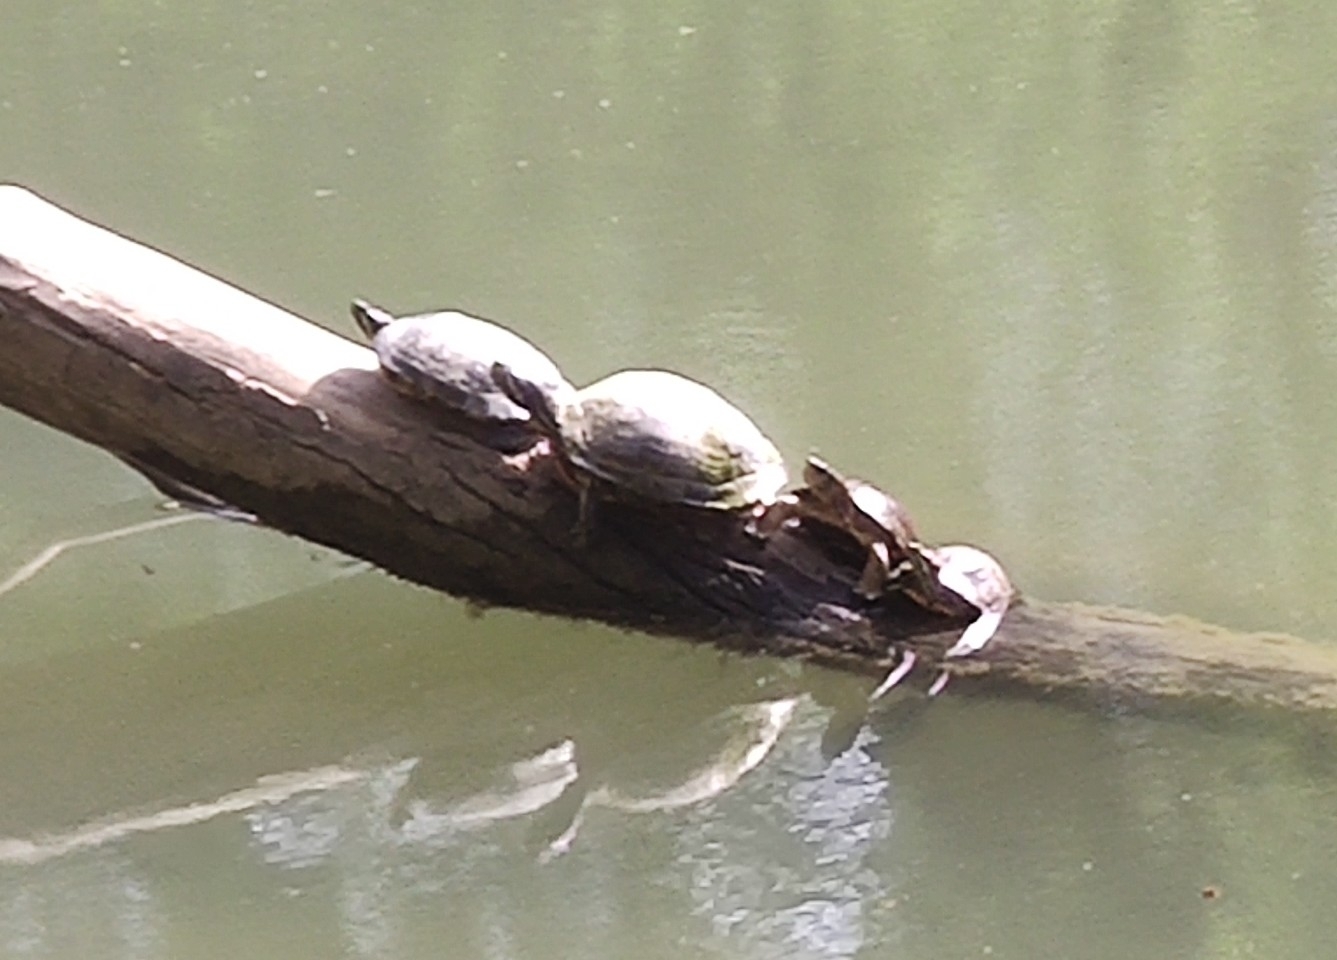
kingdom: Animalia
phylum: Chordata
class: Testudines
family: Emydidae
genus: Trachemys
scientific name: Trachemys scripta
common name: Slider
